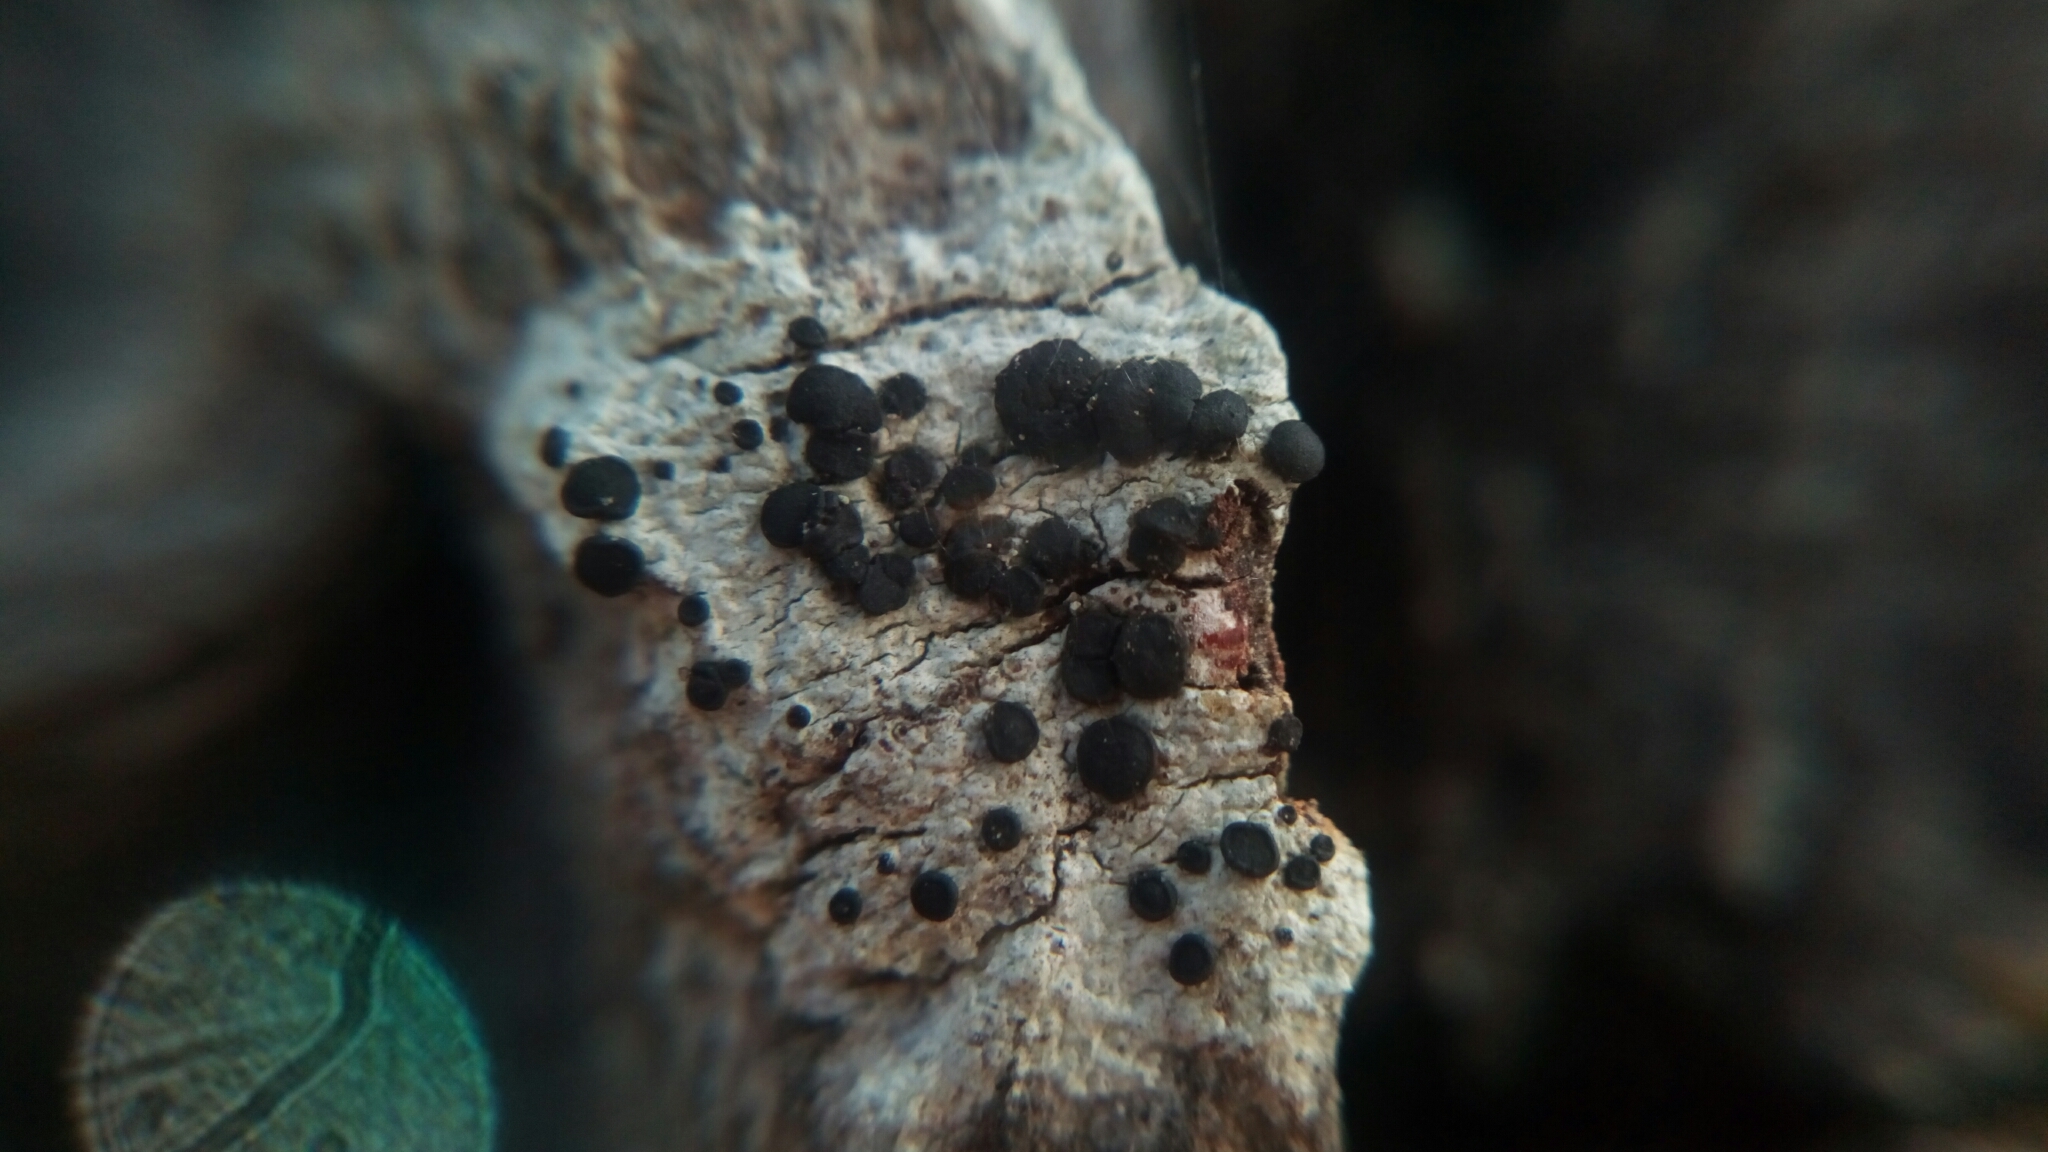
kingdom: Fungi
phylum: Ascomycota
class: Lecanoromycetes
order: Caliciales
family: Caliciaceae
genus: Buellia
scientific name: Buellia erubescens
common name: Common button lichen
